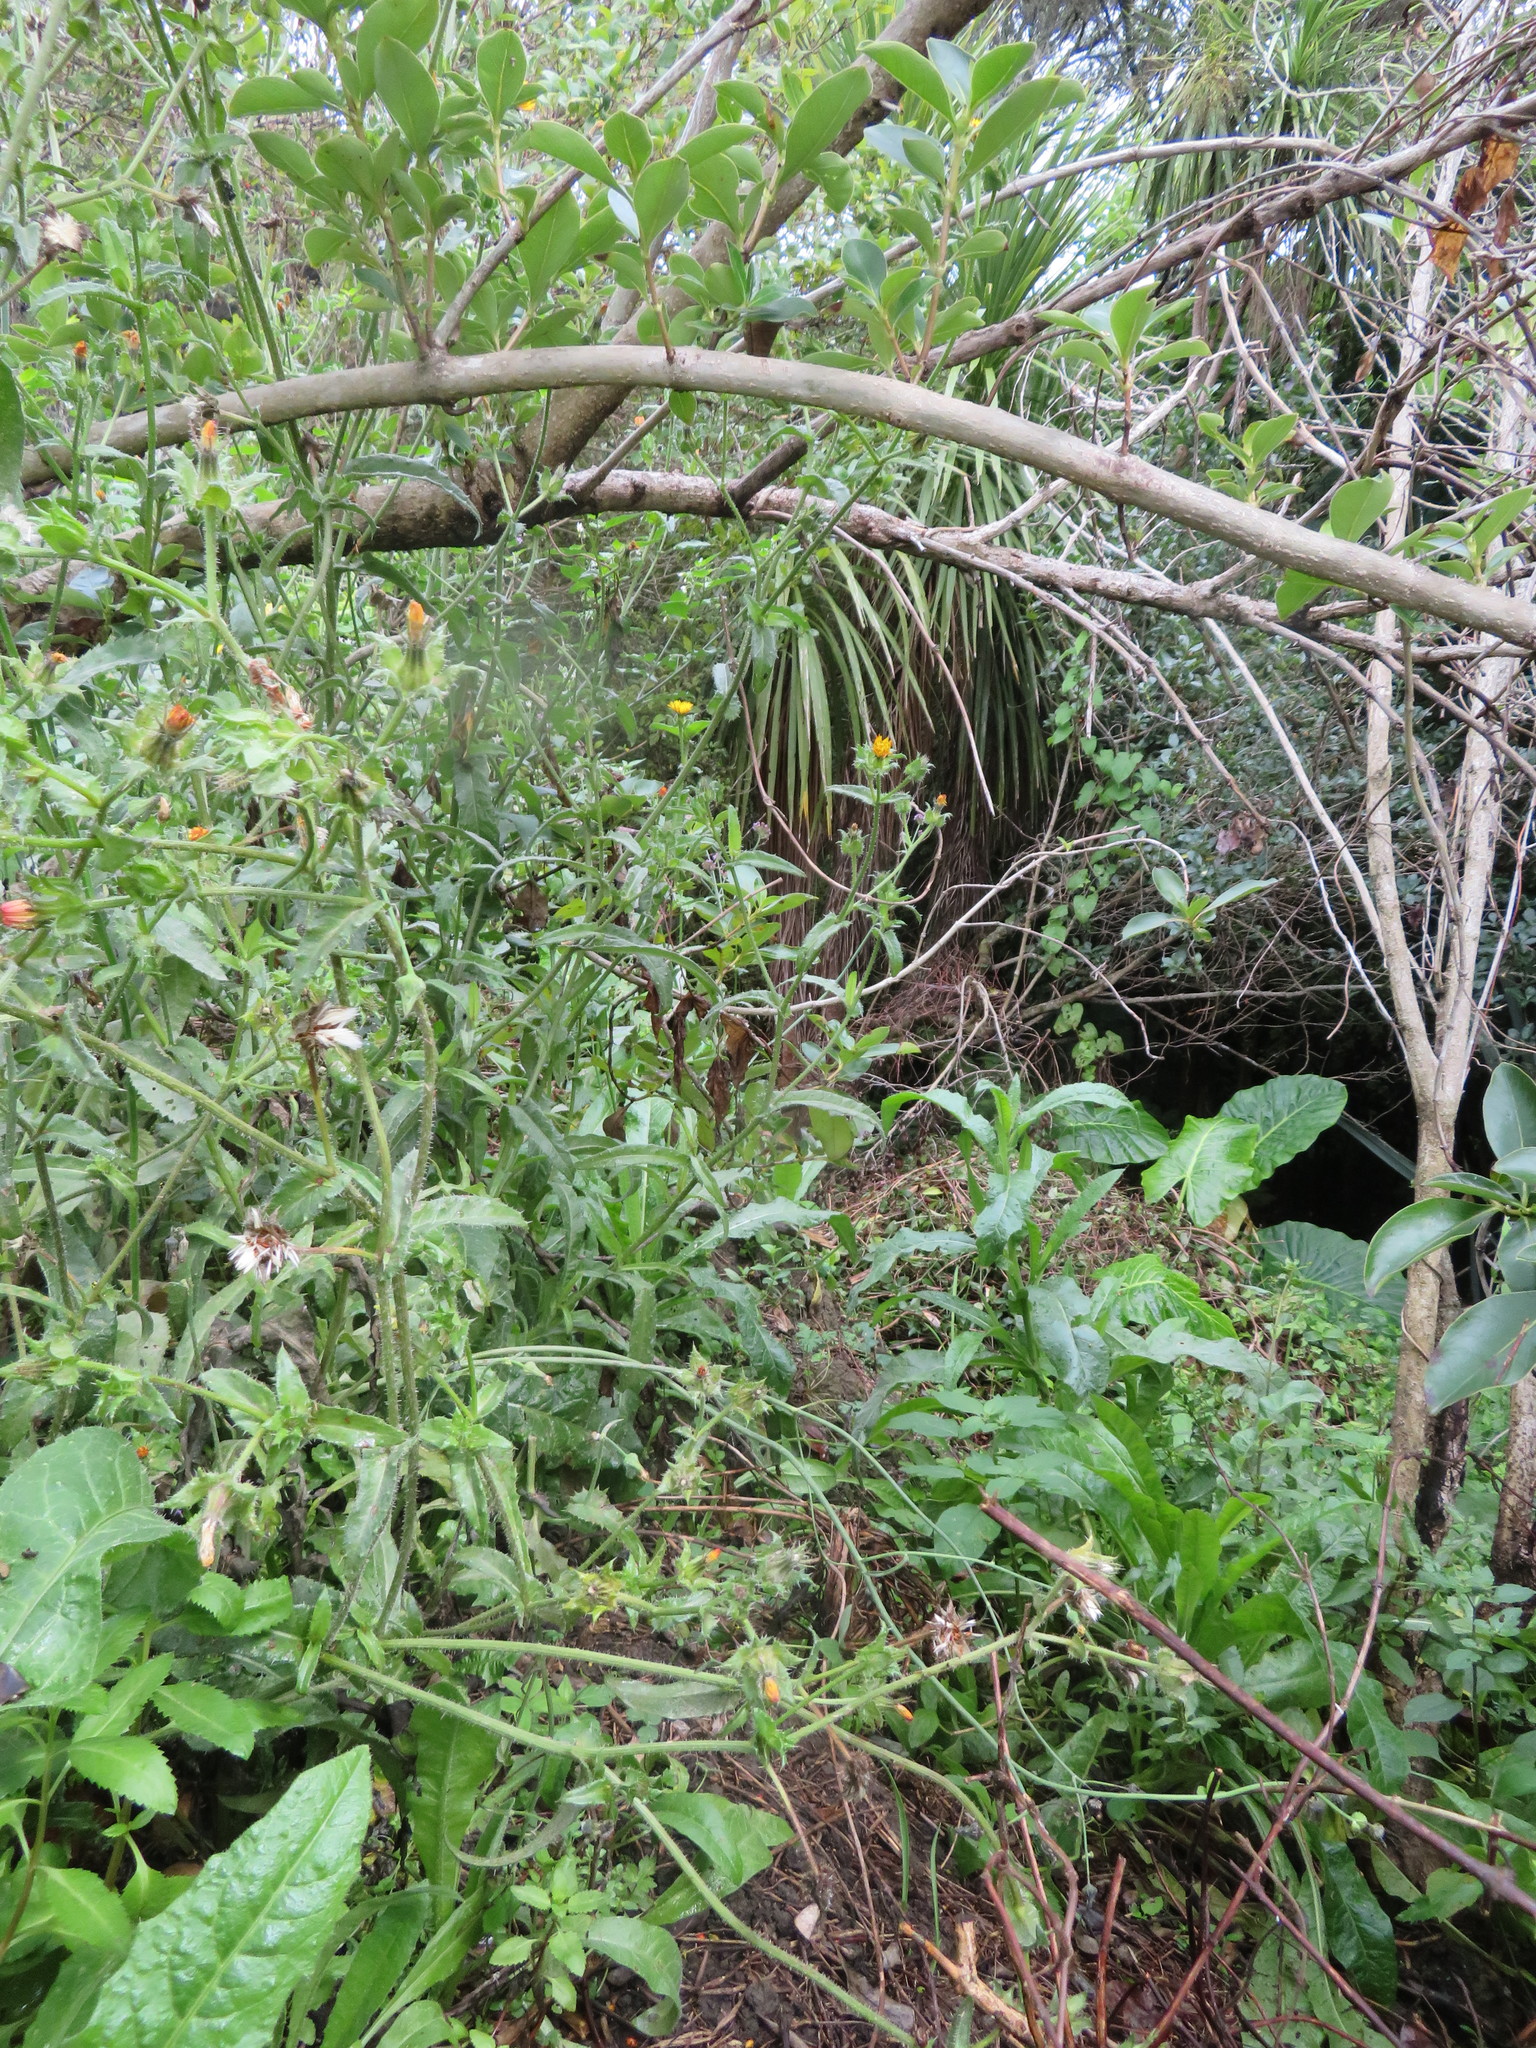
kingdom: Plantae
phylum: Tracheophyta
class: Magnoliopsida
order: Gentianales
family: Rubiaceae
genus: Coprosma
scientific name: Coprosma robusta
